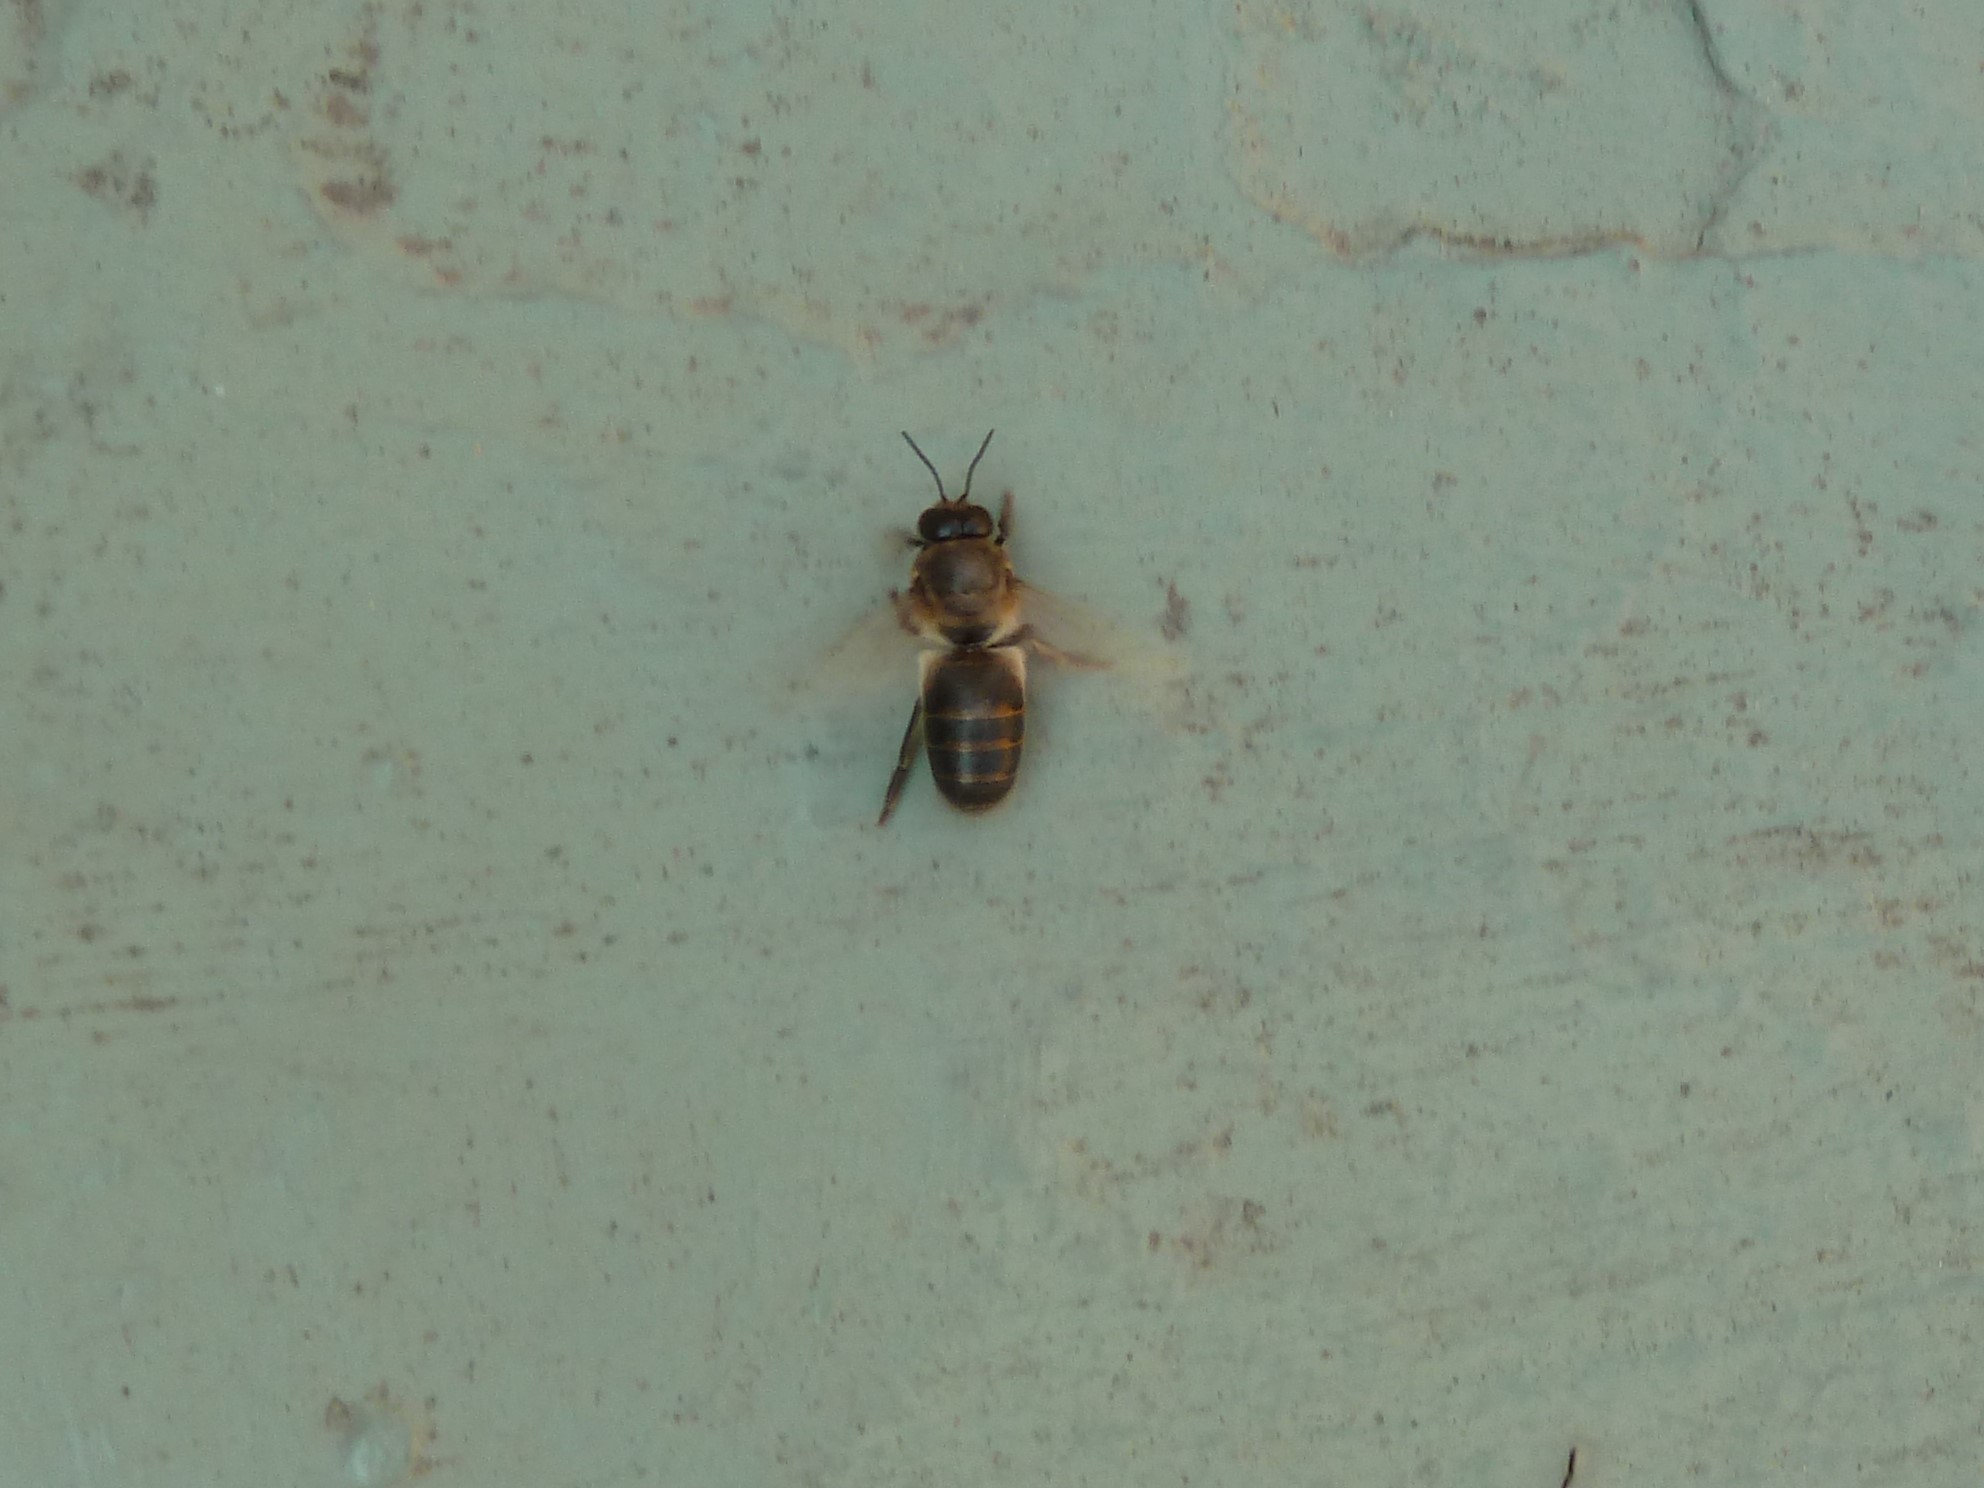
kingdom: Animalia
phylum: Arthropoda
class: Insecta
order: Hymenoptera
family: Apidae
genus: Apis
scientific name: Apis mellifera
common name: Honey bee
